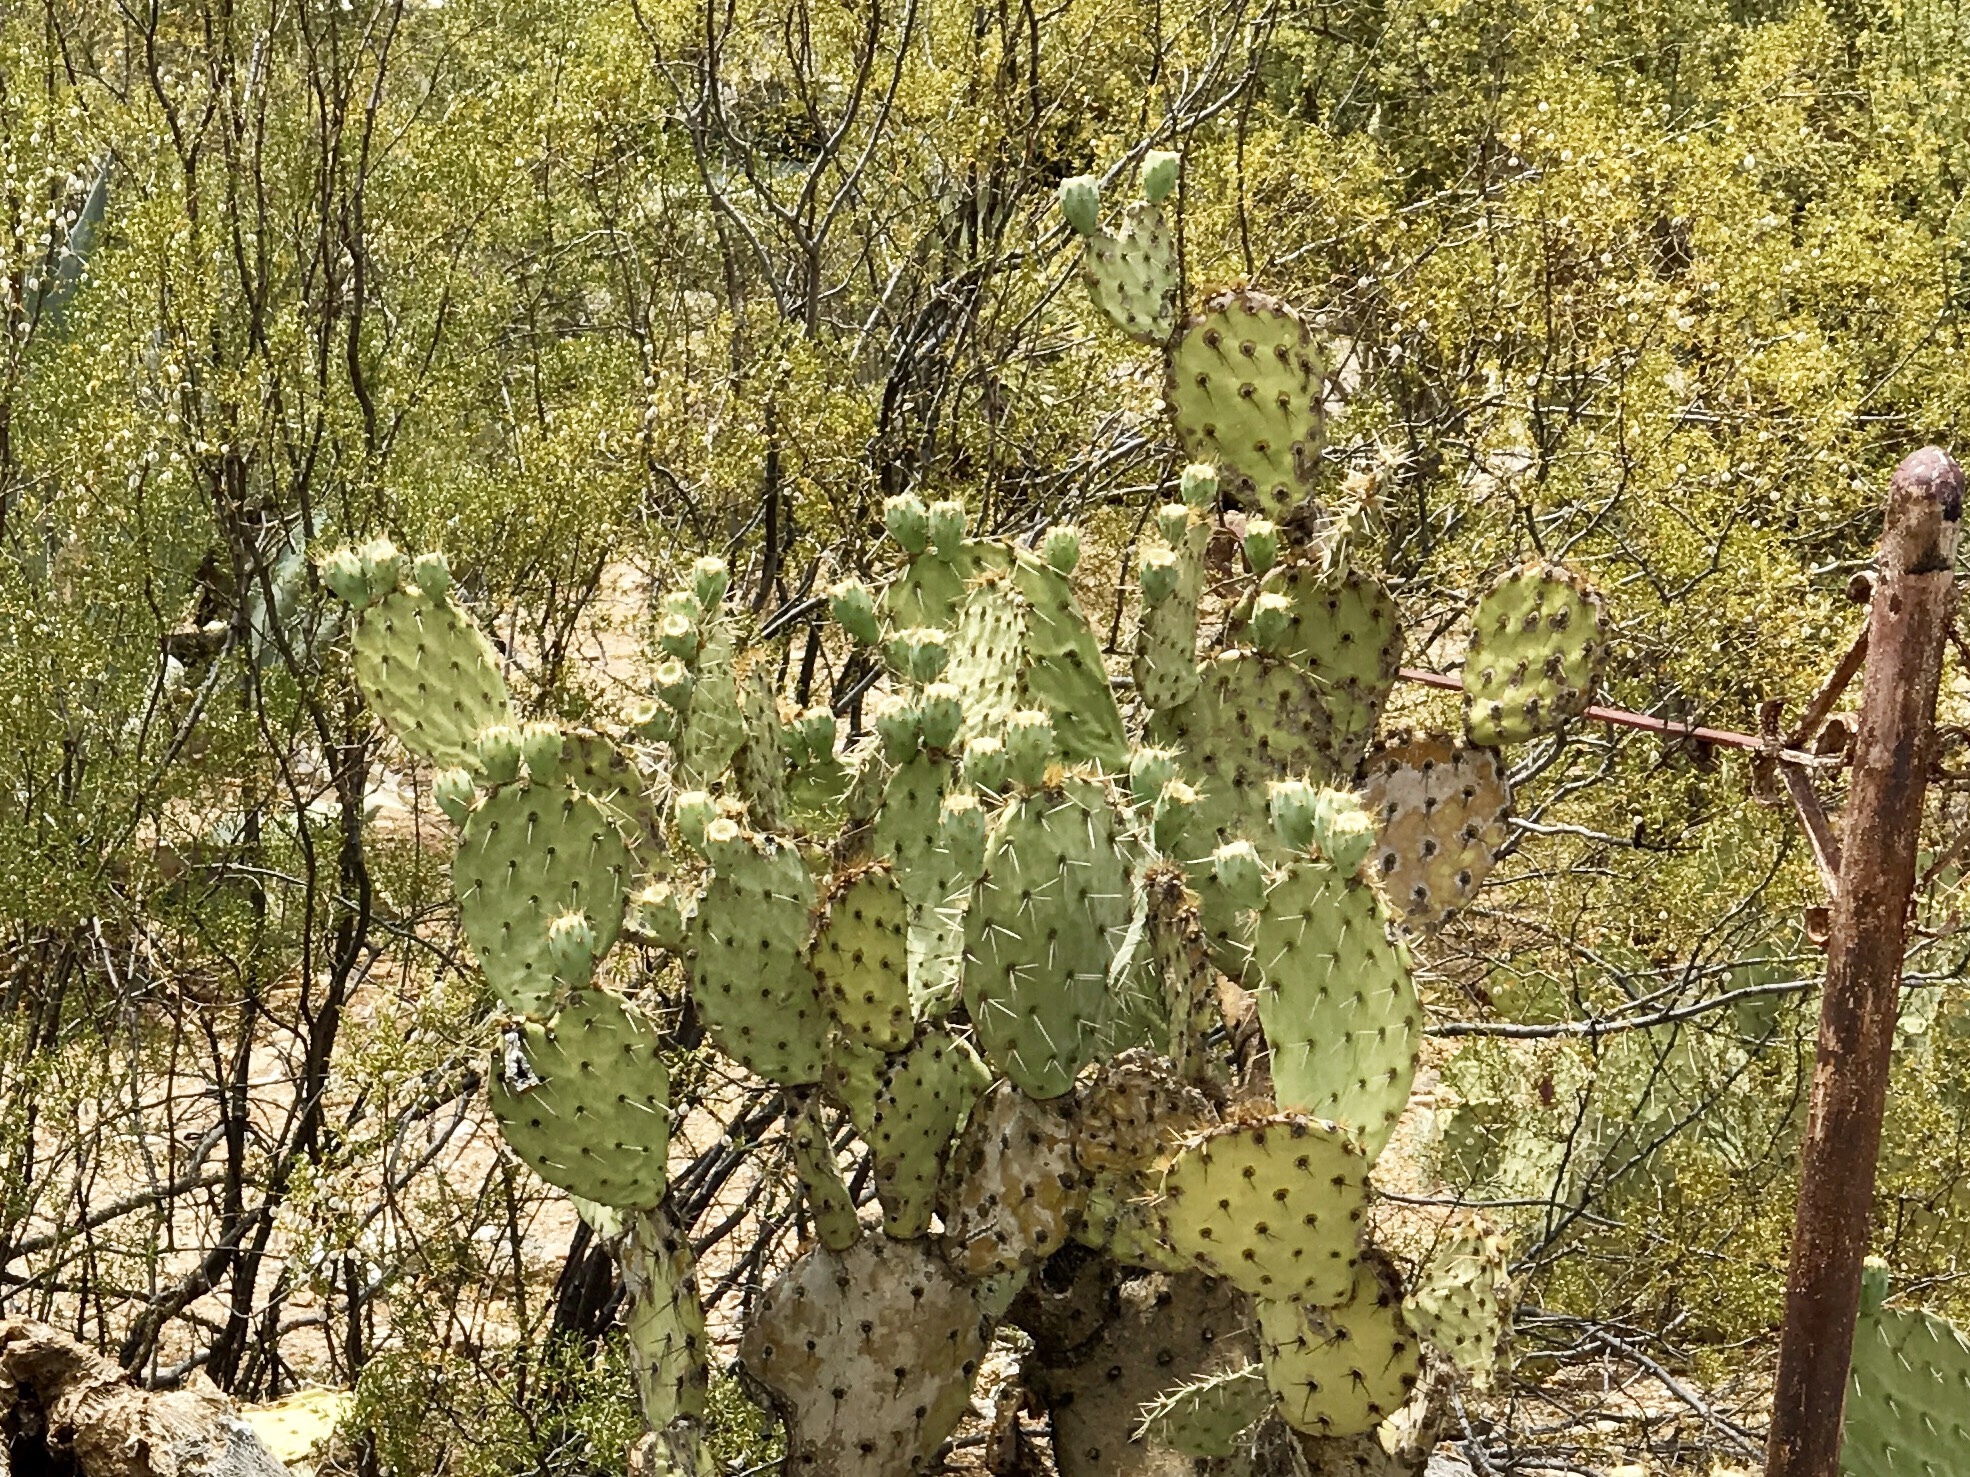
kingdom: Plantae
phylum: Tracheophyta
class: Magnoliopsida
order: Caryophyllales
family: Cactaceae
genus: Opuntia
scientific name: Opuntia engelmannii
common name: Cactus-apple
